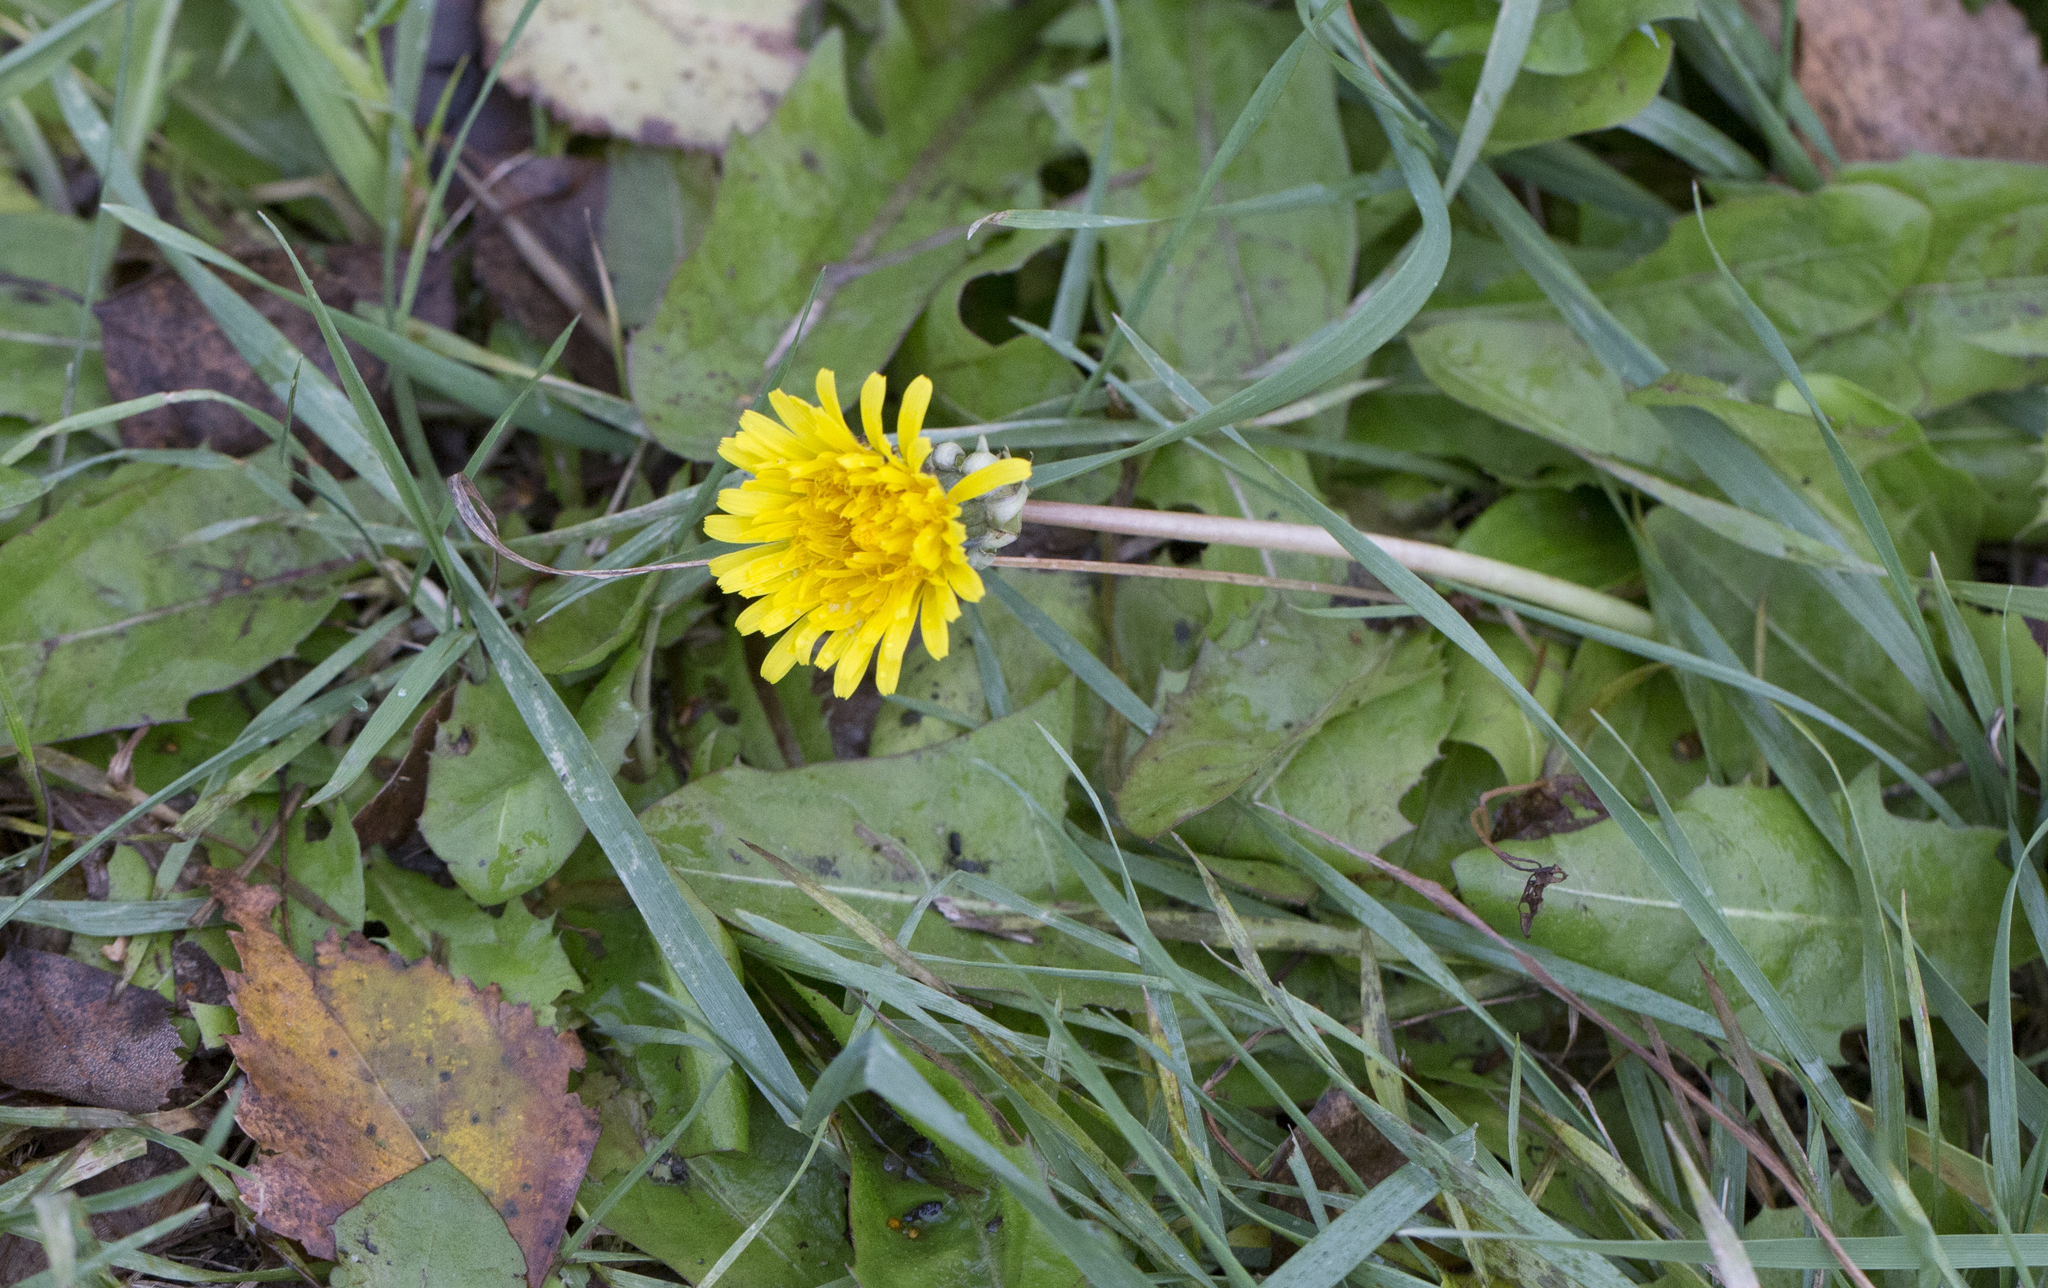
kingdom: Plantae
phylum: Tracheophyta
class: Magnoliopsida
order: Asterales
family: Asteraceae
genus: Taraxacum
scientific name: Taraxacum officinale
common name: Common dandelion
